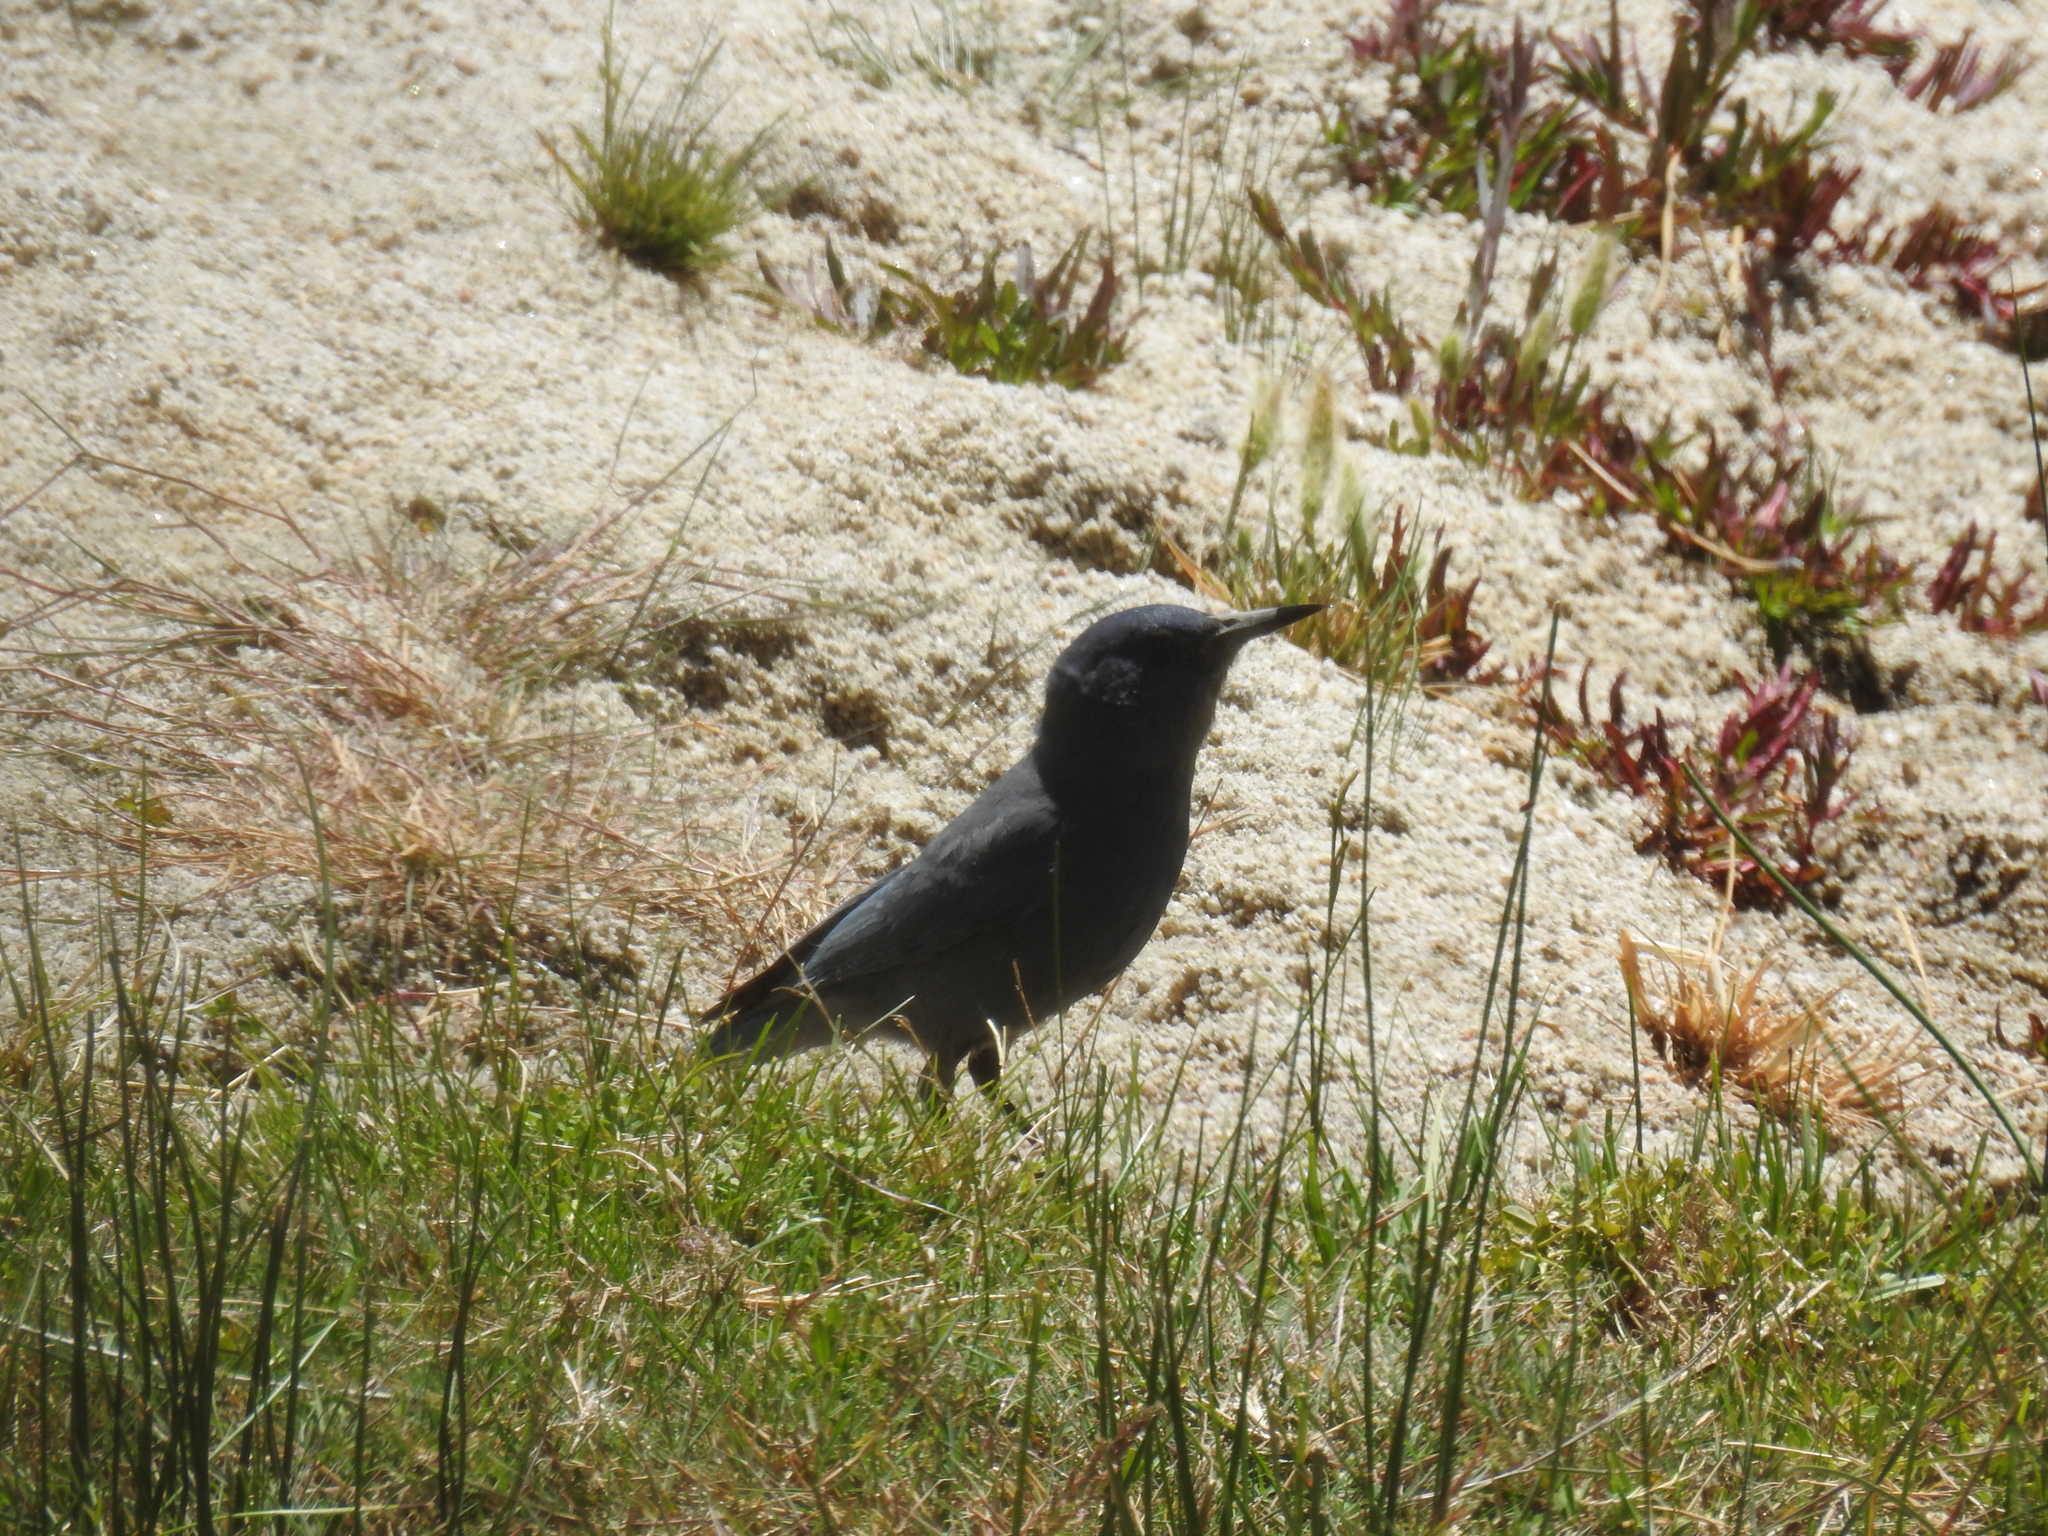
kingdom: Animalia
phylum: Chordata
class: Aves
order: Passeriformes
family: Corvidae
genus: Gymnorhinus
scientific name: Gymnorhinus cyanocephalus
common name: Pinyon jay
